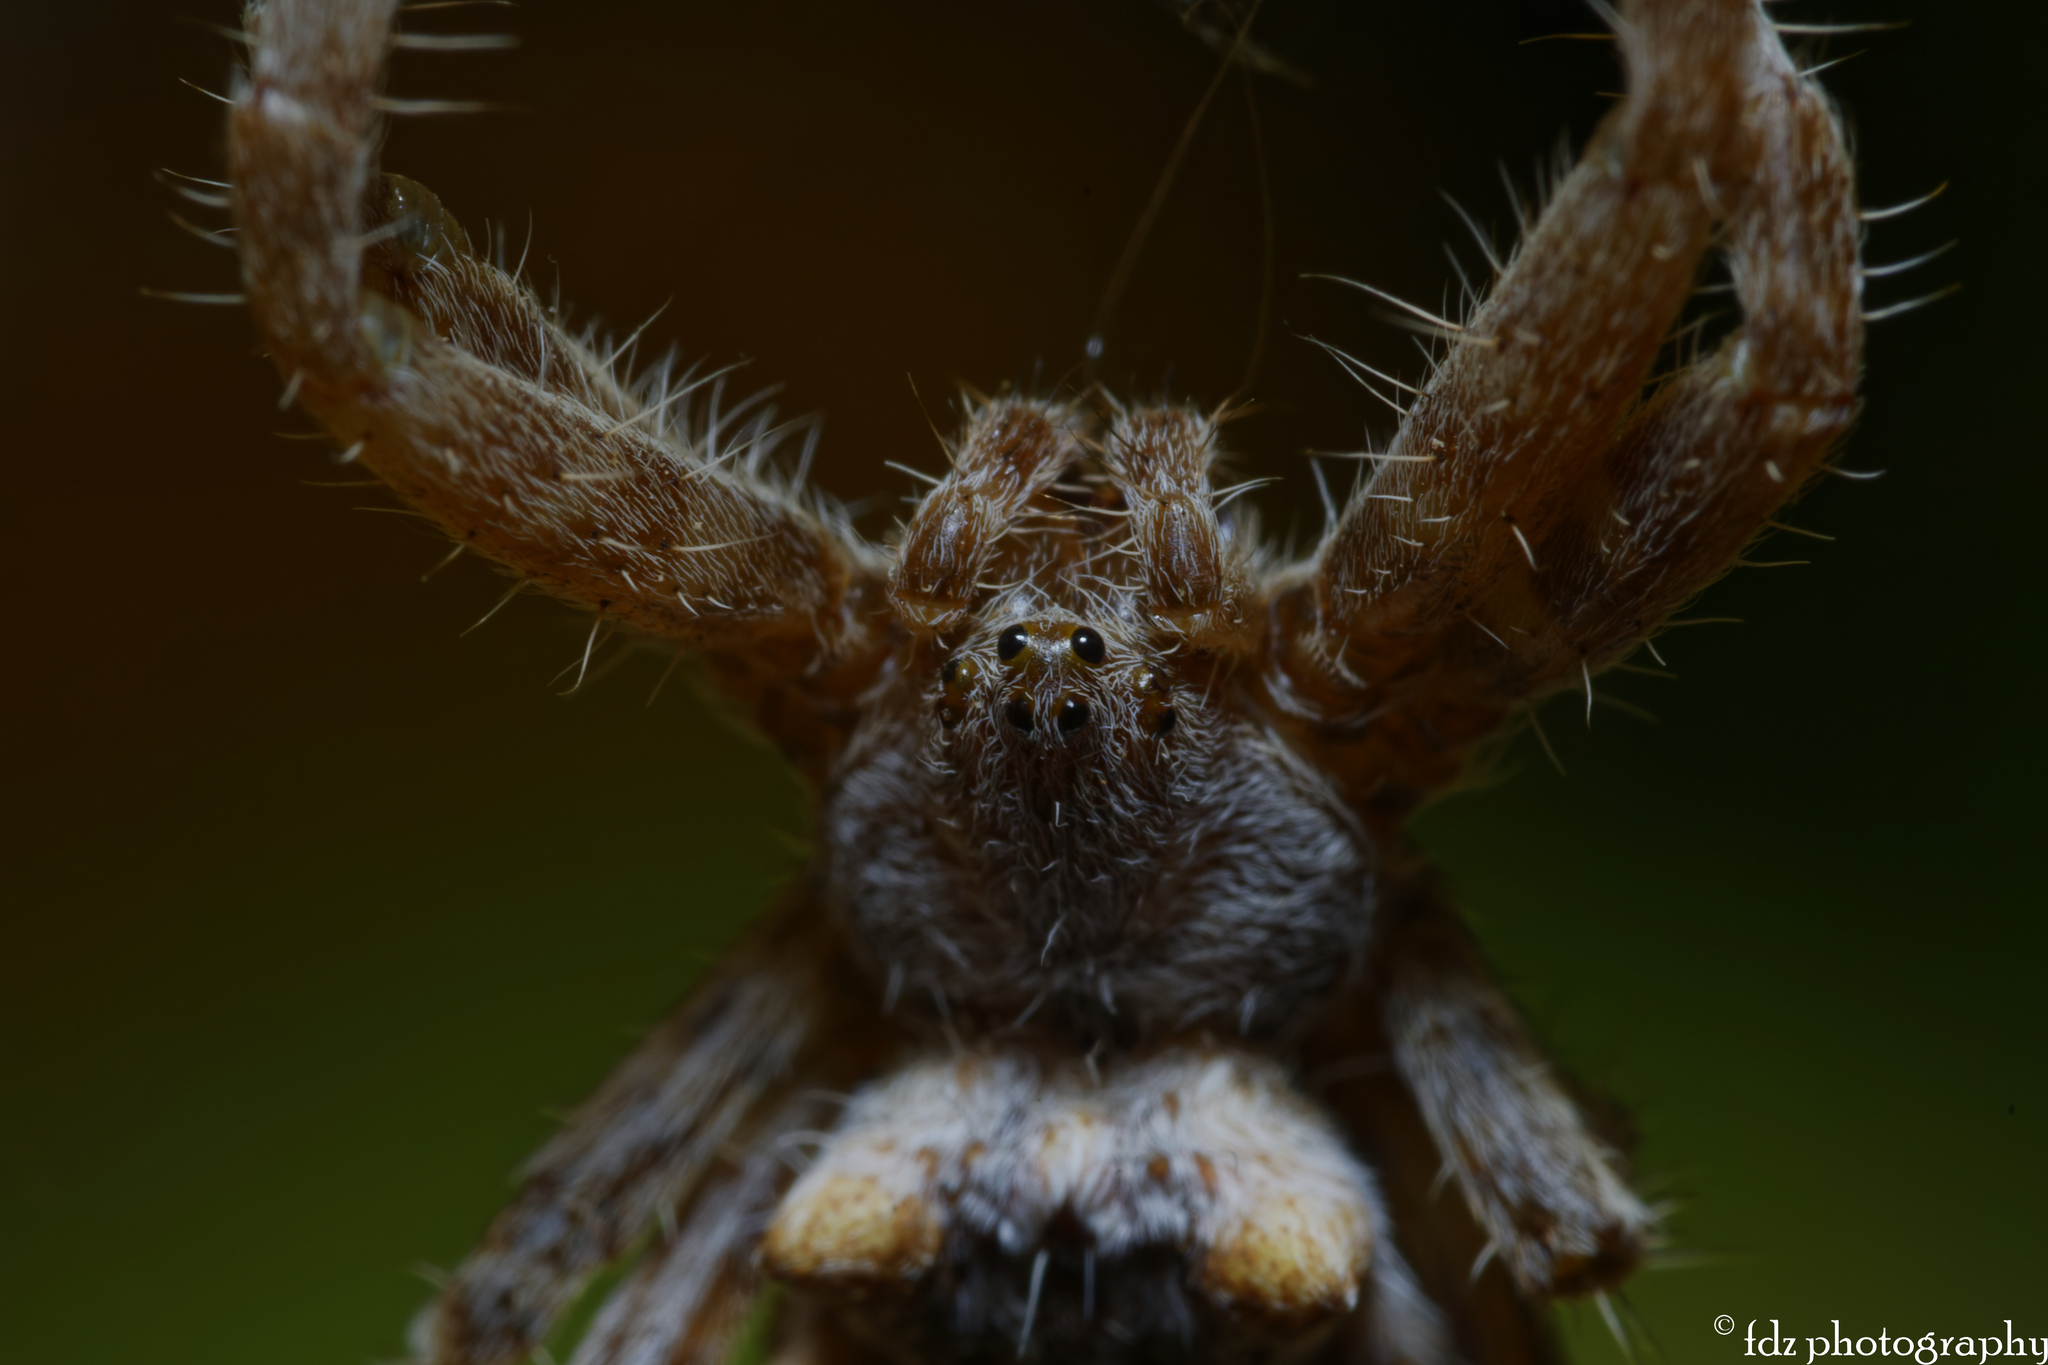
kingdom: Animalia
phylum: Arthropoda
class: Arachnida
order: Araneae
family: Araneidae
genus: Cyrtophora
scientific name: Cyrtophora citricola
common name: Orb weavers
